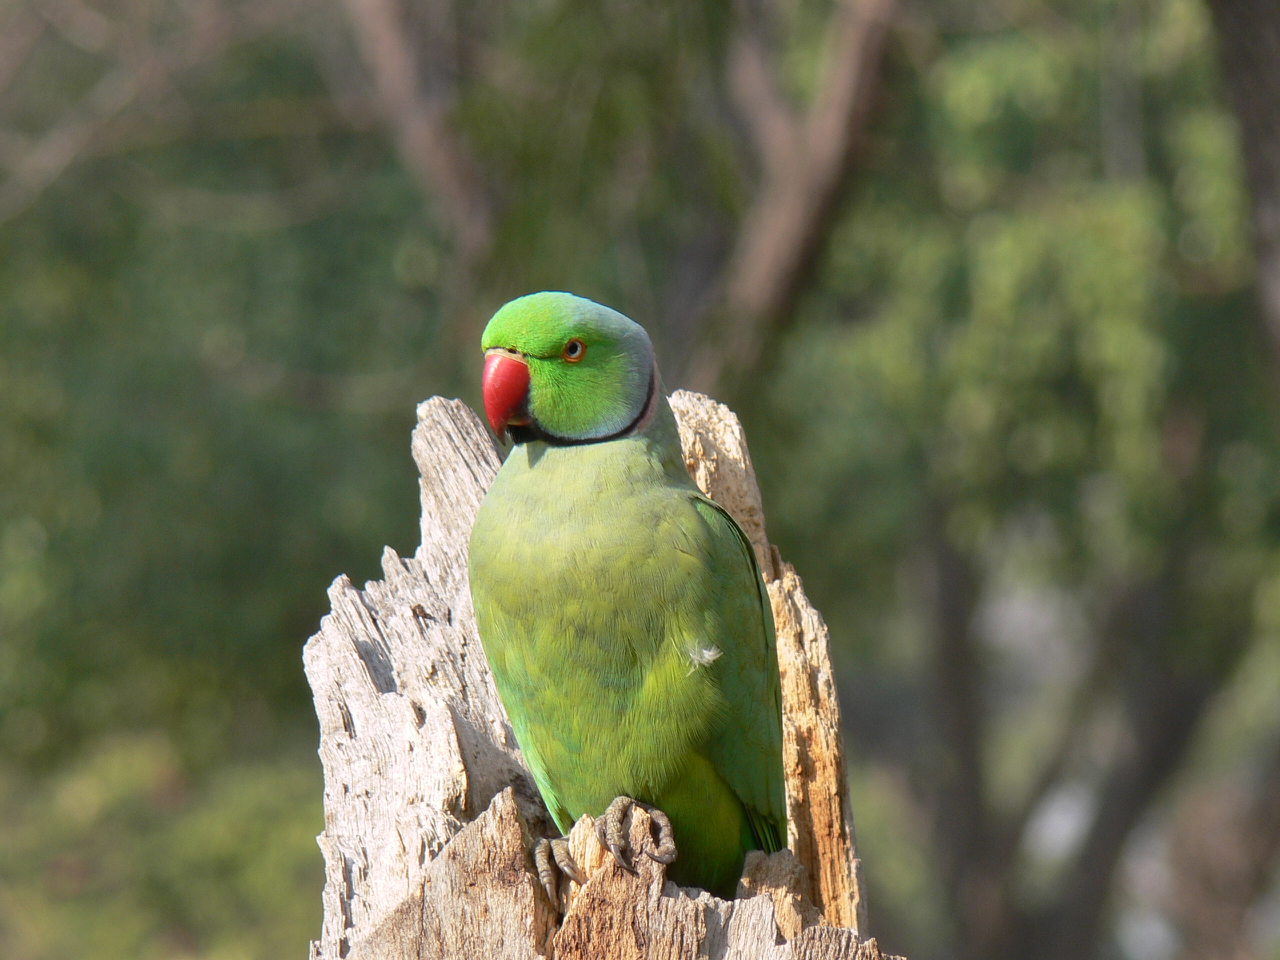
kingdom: Animalia
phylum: Chordata
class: Aves
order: Psittaciformes
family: Psittacidae
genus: Psittacula
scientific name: Psittacula krameri
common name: Rose-ringed parakeet
